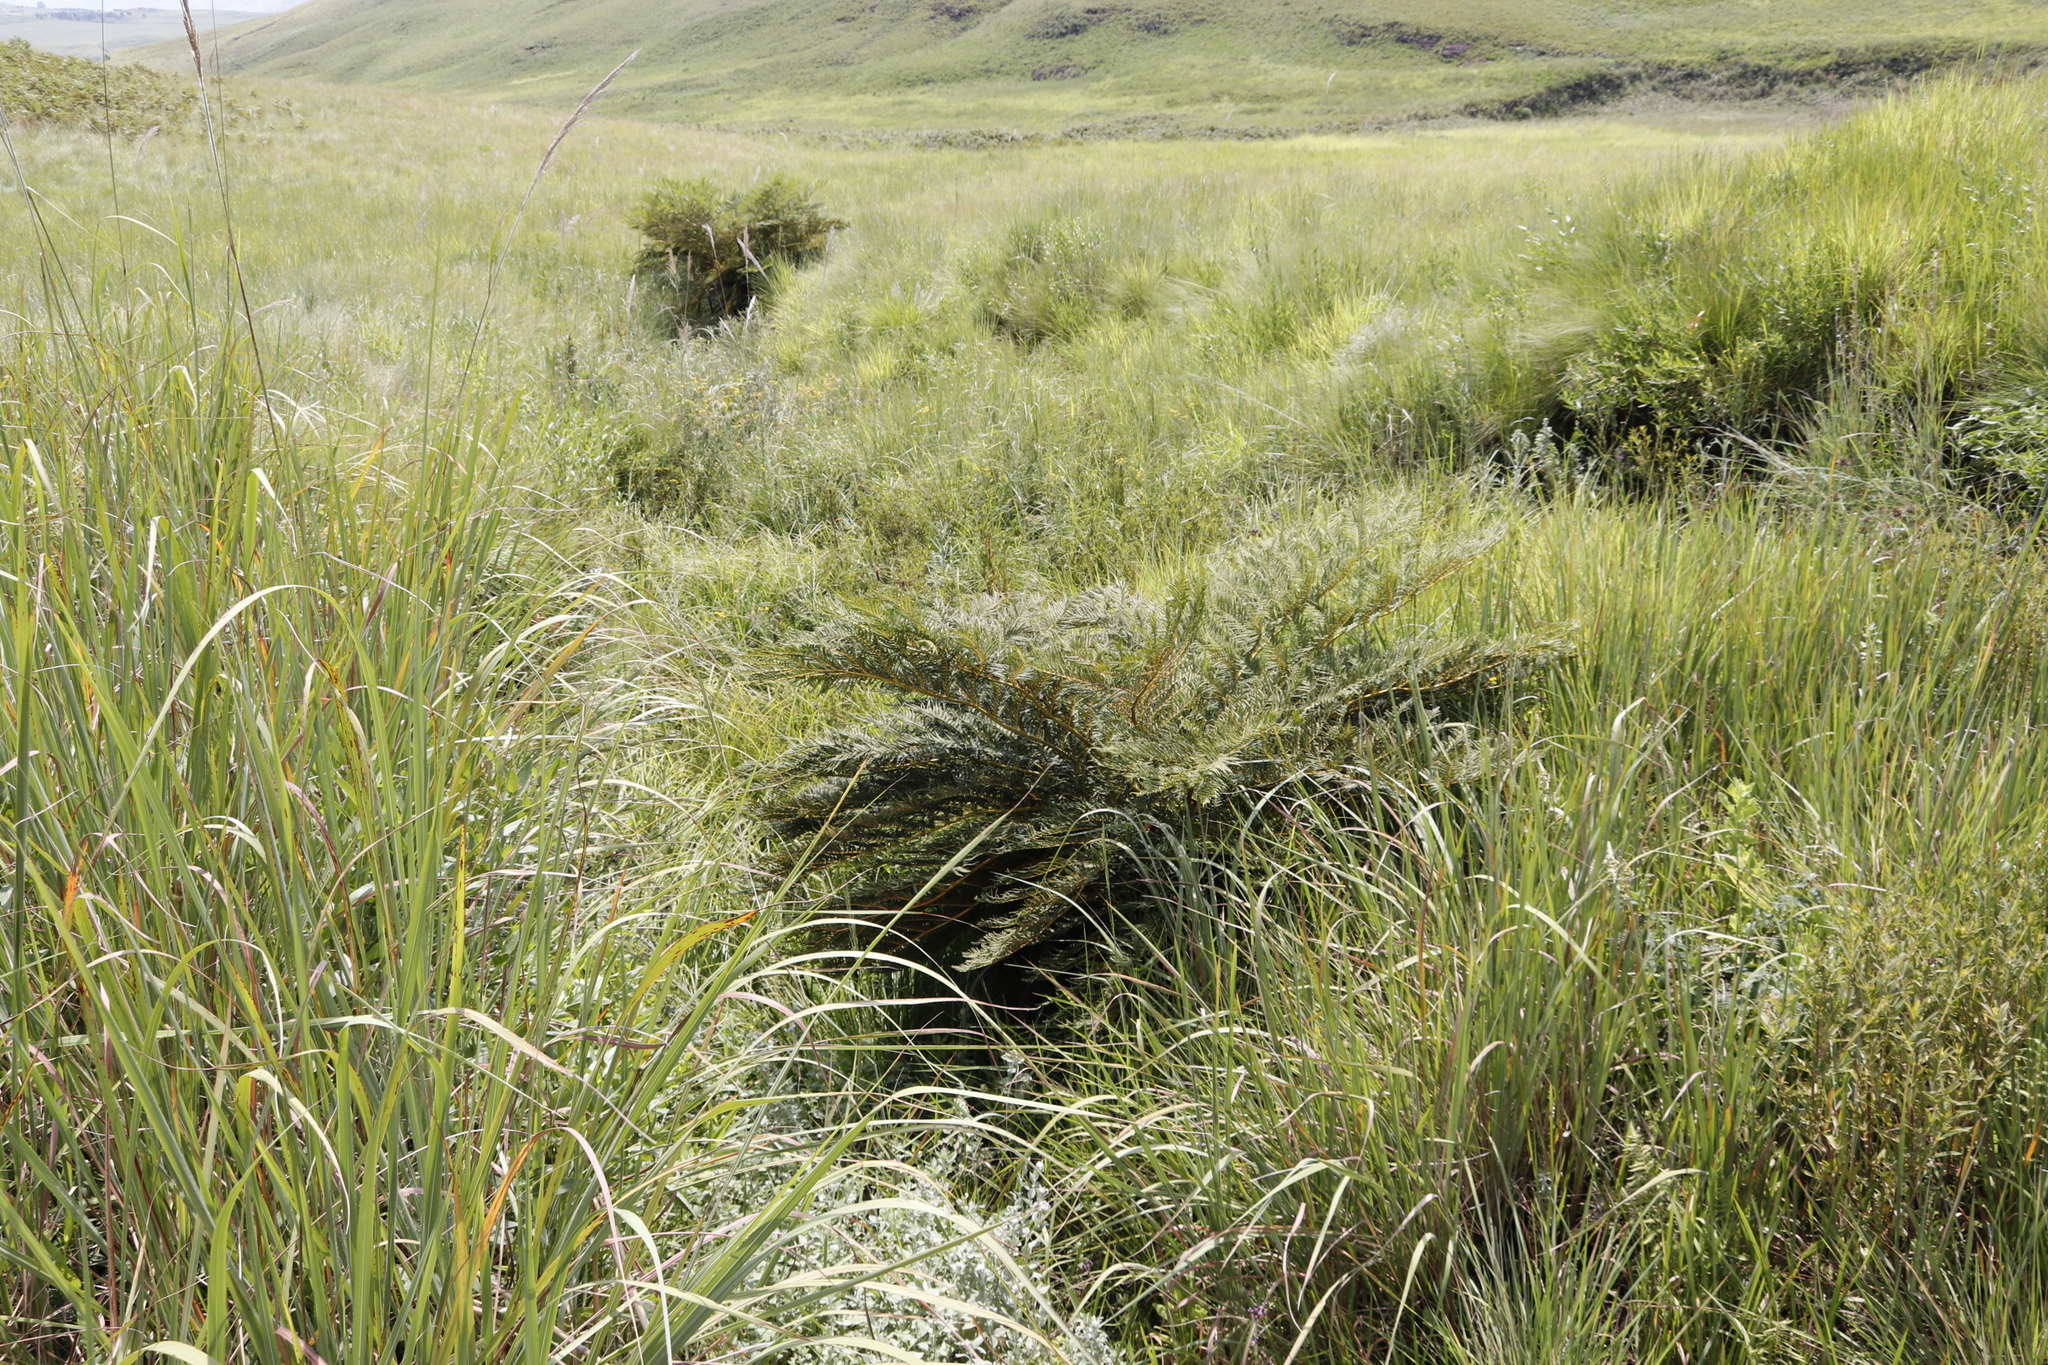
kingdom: Plantae
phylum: Tracheophyta
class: Polypodiopsida
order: Cyatheales
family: Cyatheaceae
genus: Alsophila
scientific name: Alsophila dregei
